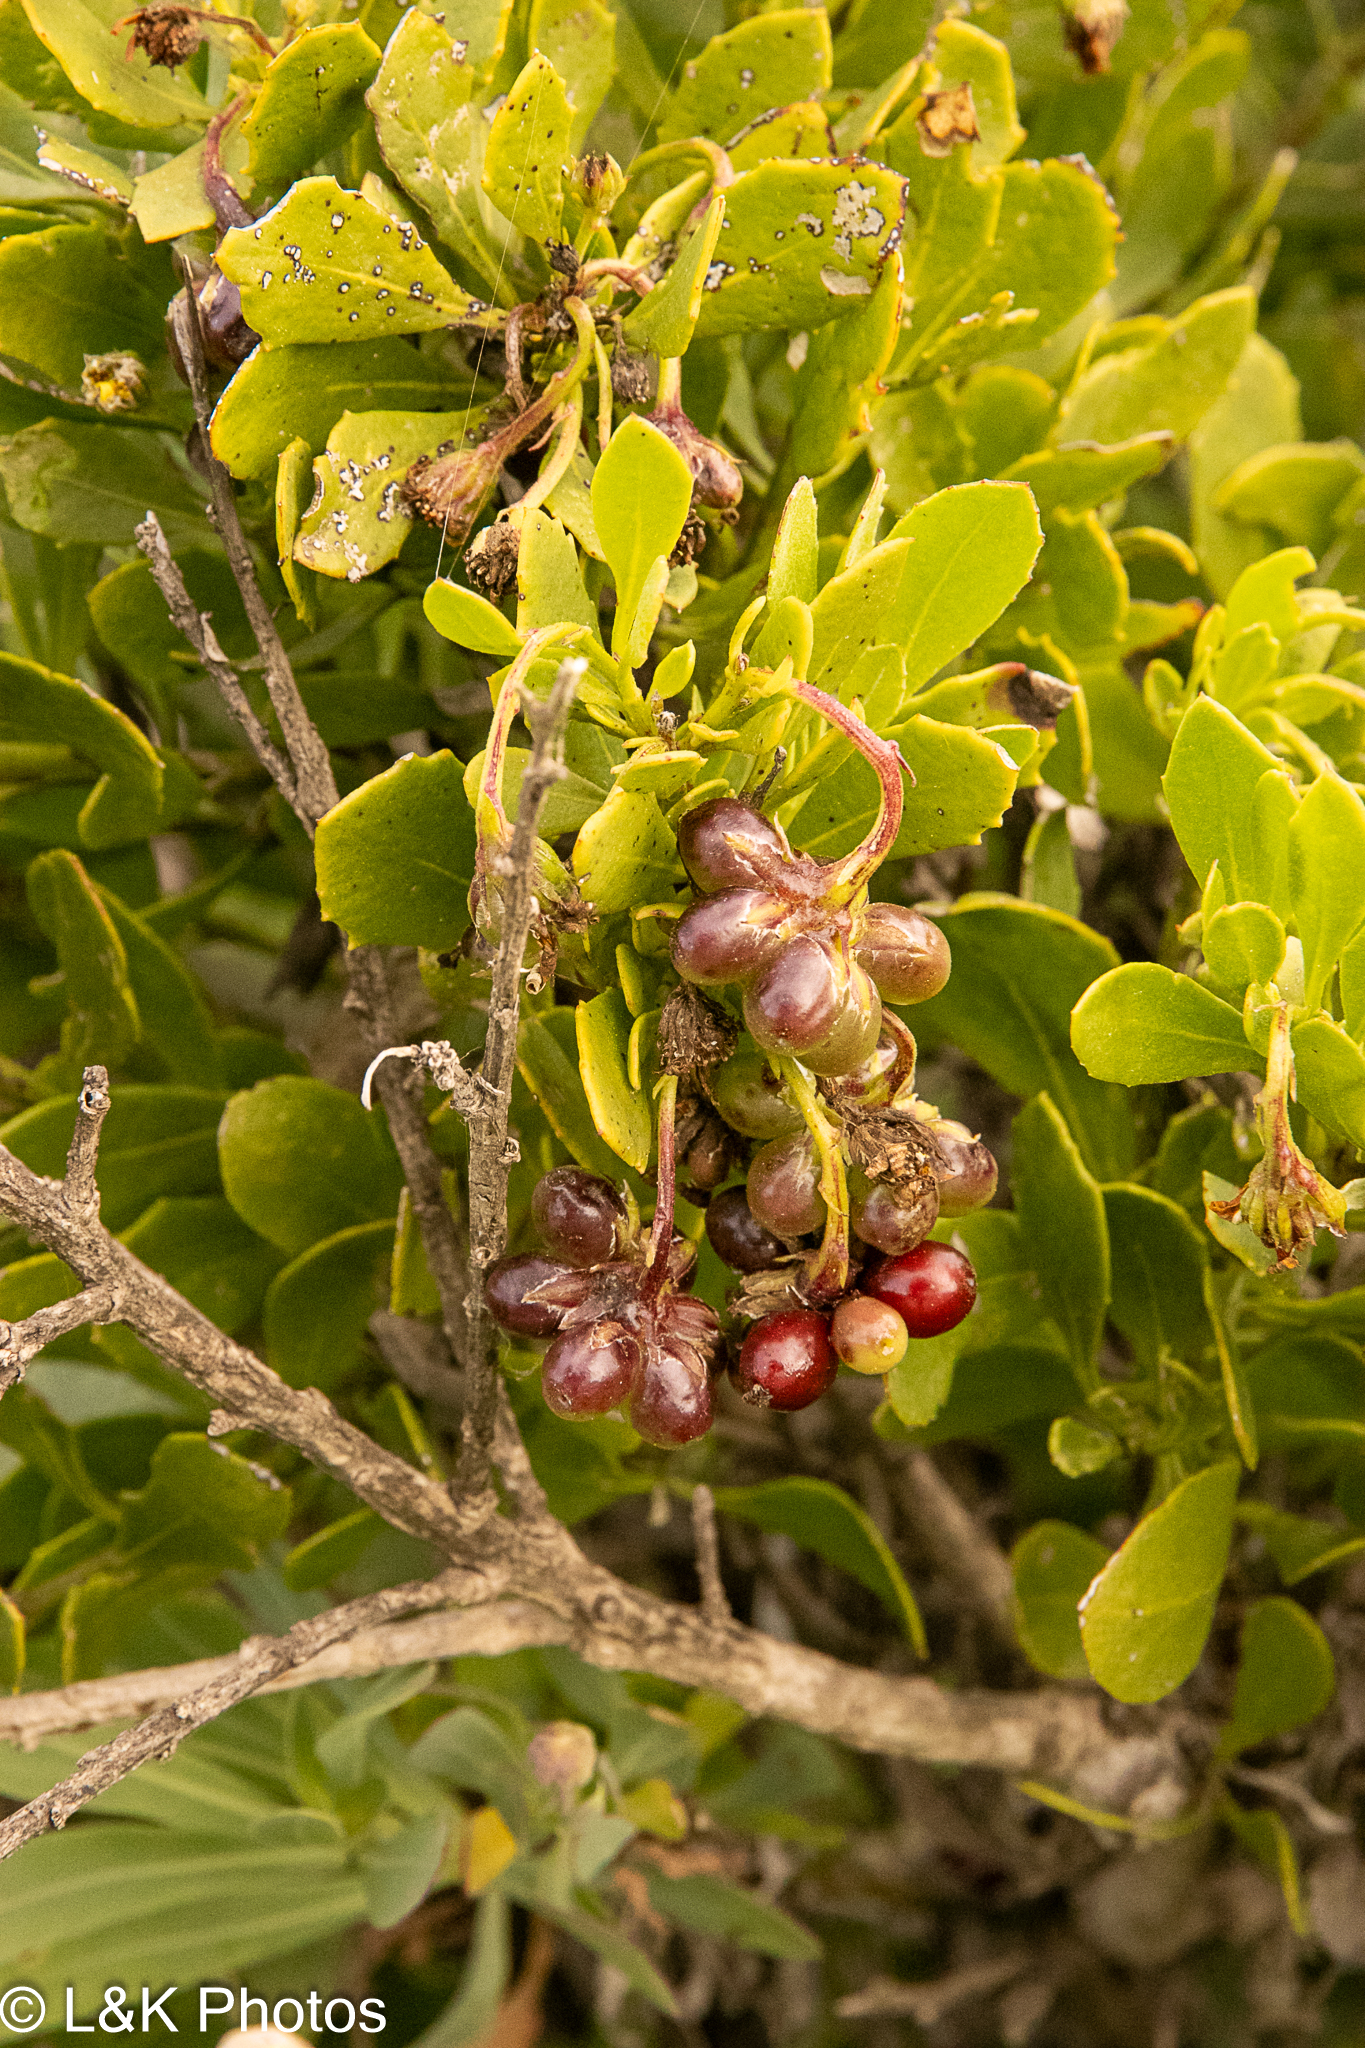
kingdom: Plantae
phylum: Tracheophyta
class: Magnoliopsida
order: Asterales
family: Asteraceae
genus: Osteospermum
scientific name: Osteospermum moniliferum
